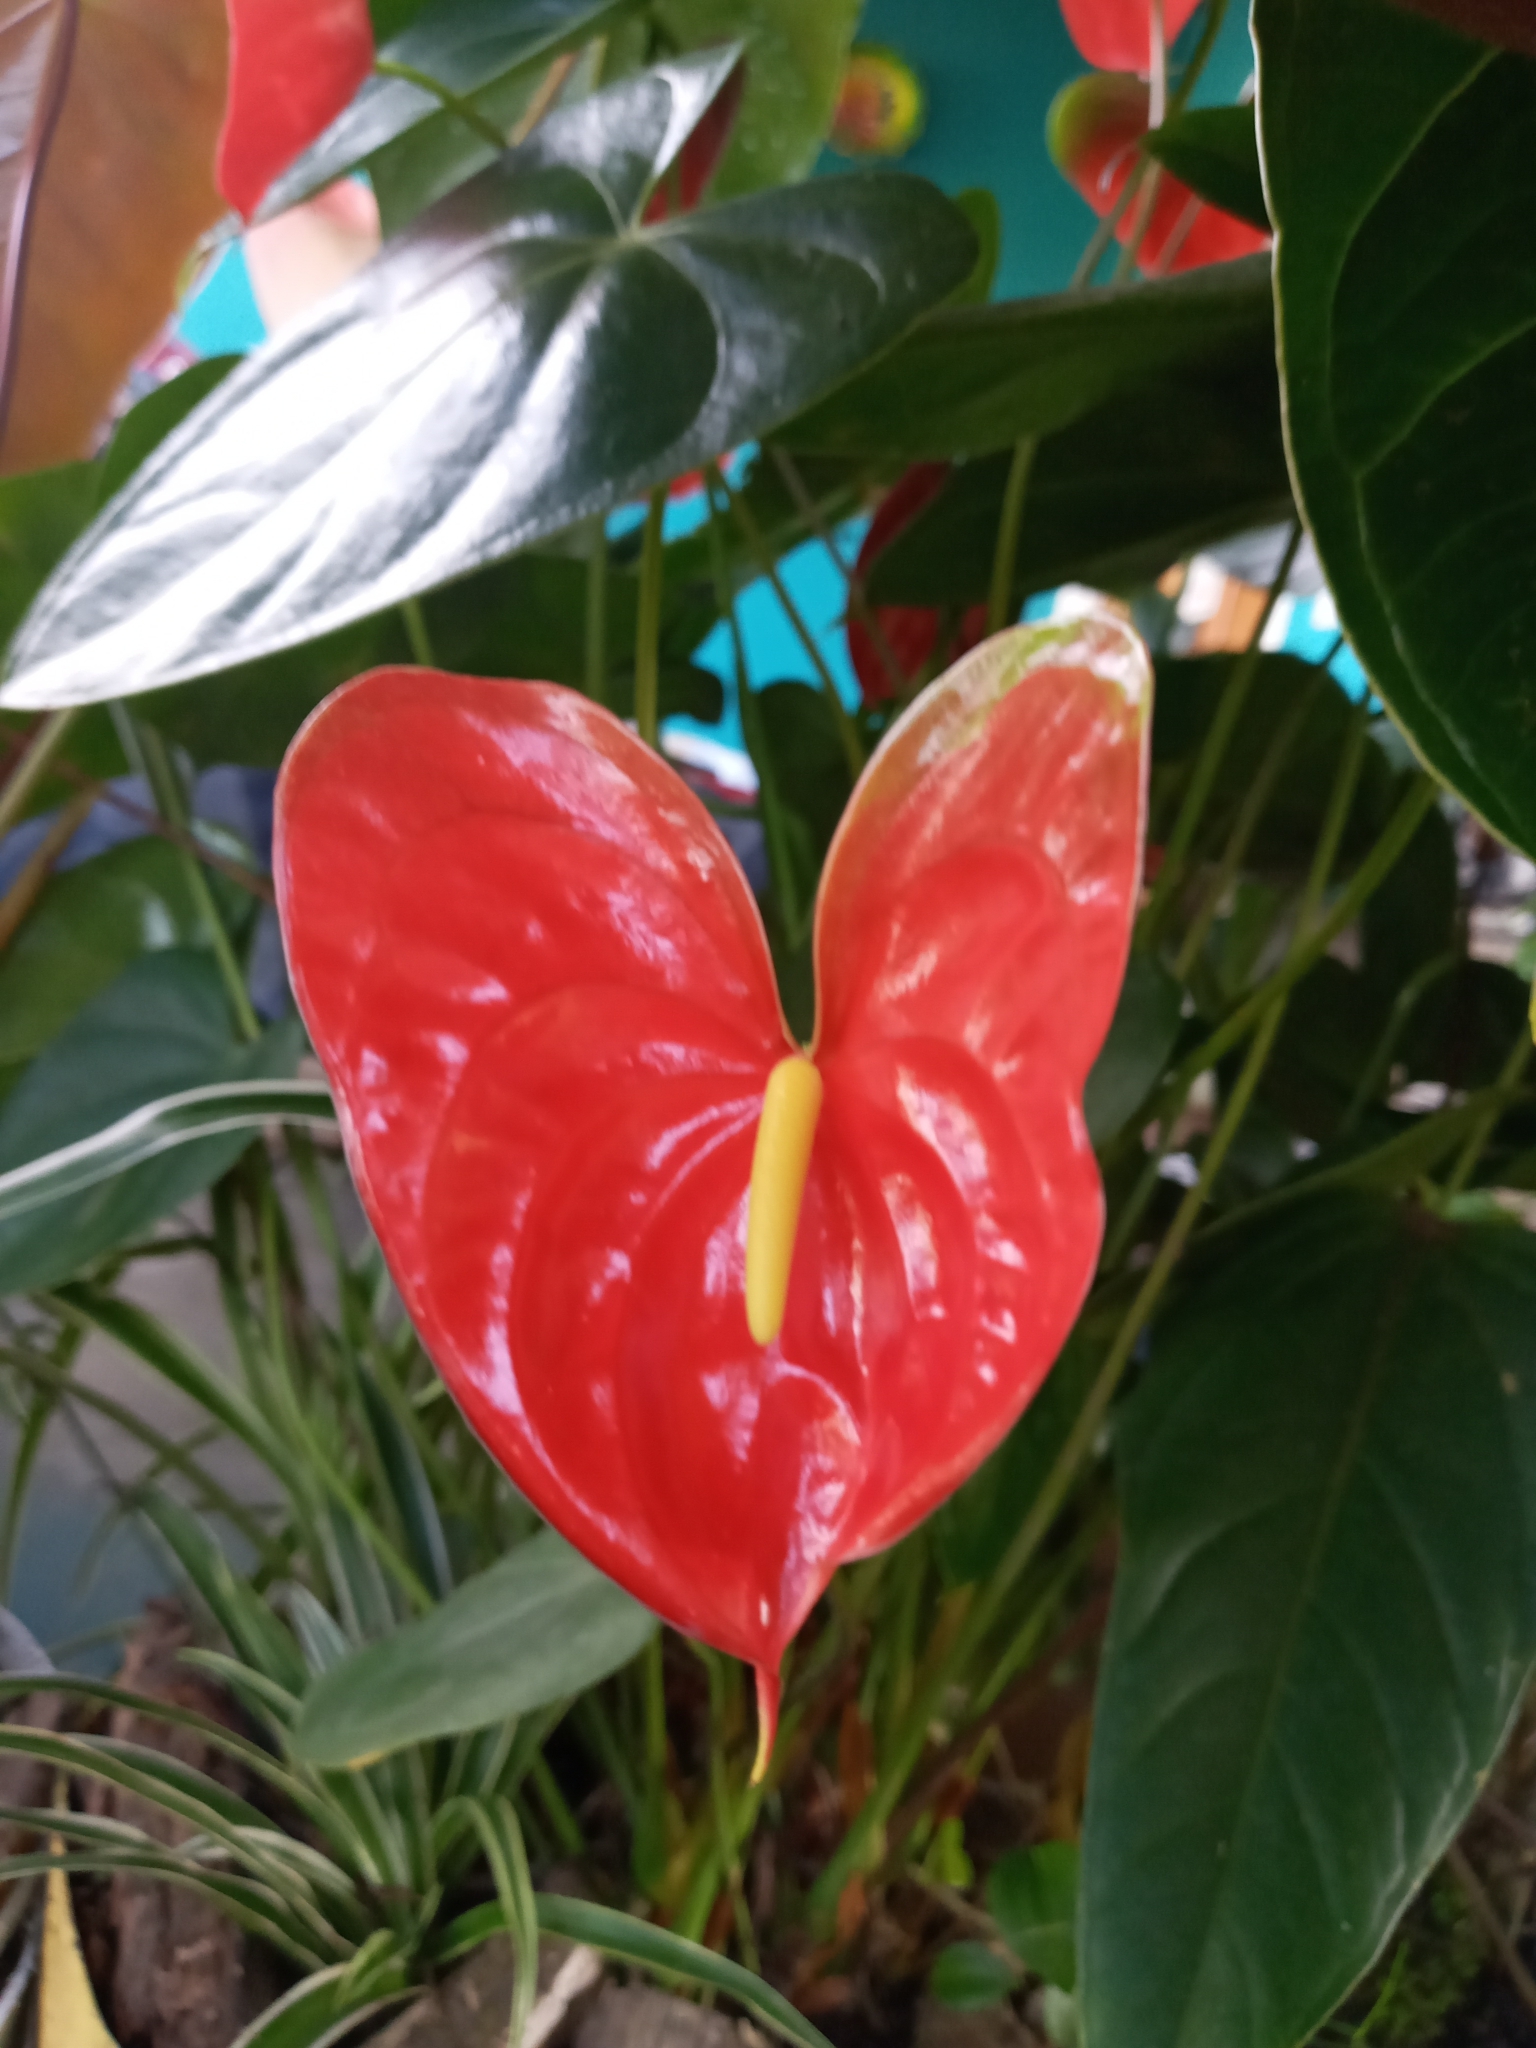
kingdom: Plantae
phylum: Tracheophyta
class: Liliopsida
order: Alismatales
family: Araceae
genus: Anthurium
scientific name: Anthurium andraeanum
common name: Flamingo-flower
